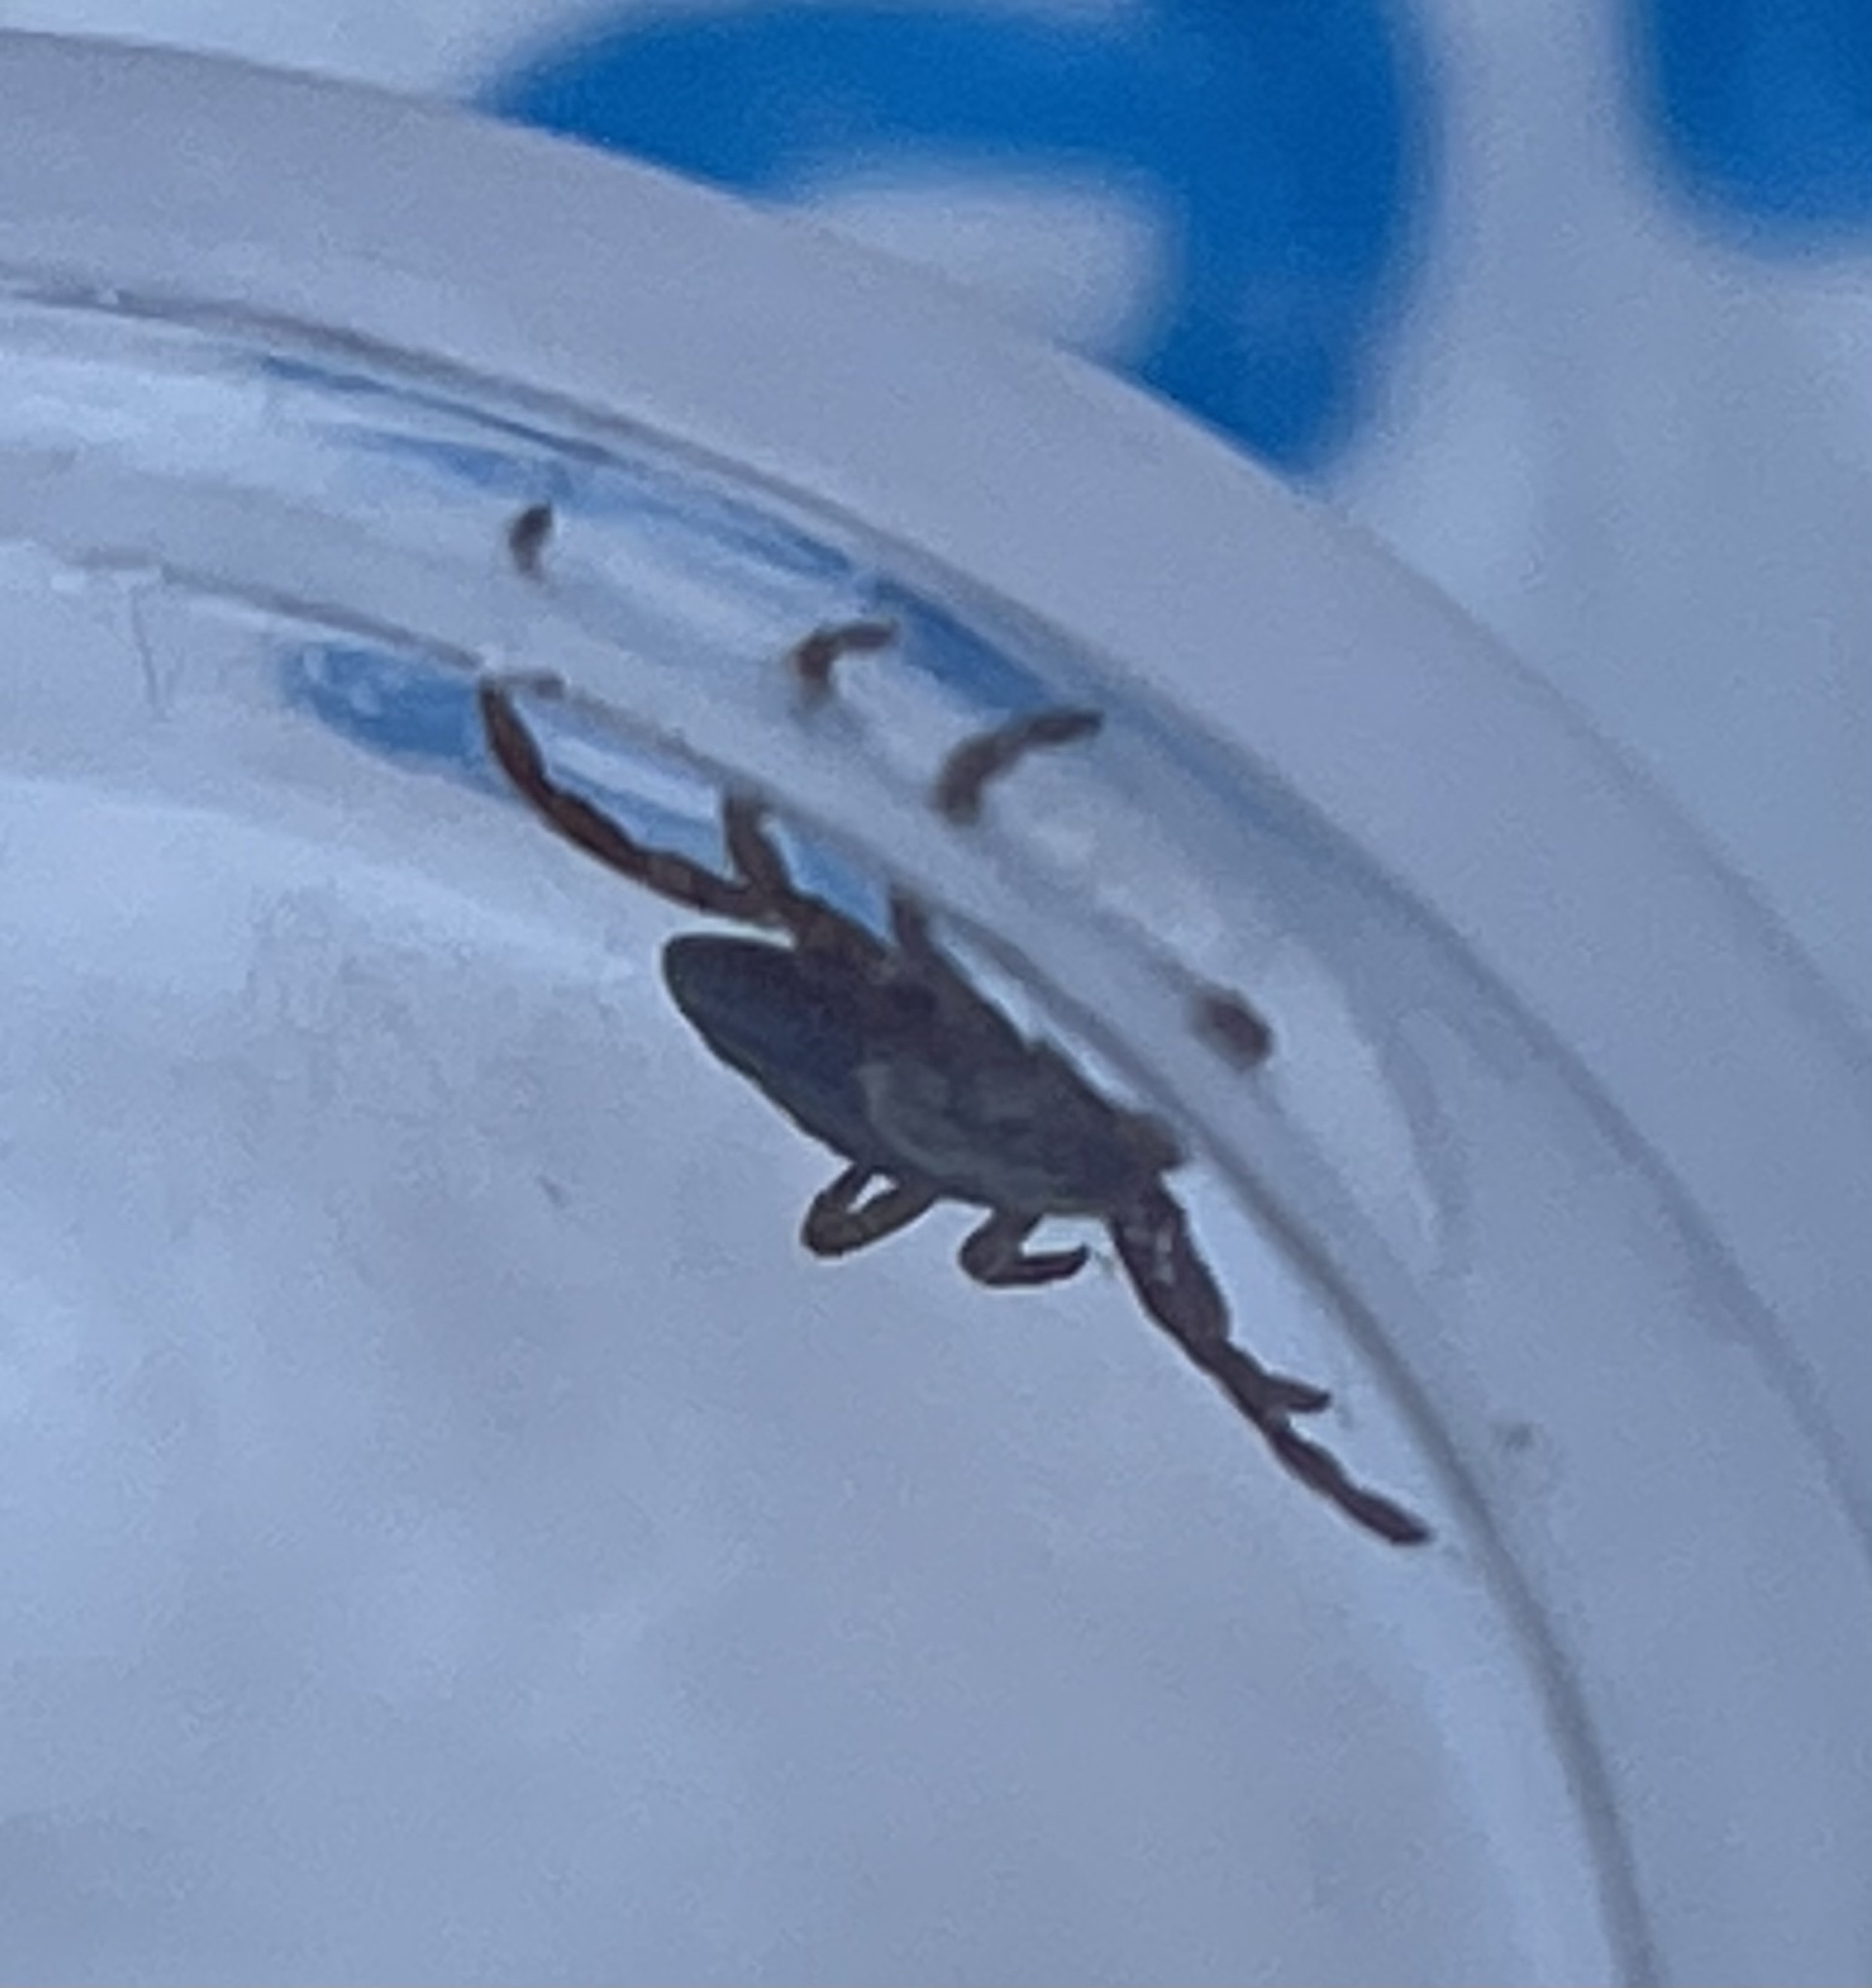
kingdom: Animalia
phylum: Arthropoda
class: Arachnida
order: Ixodida
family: Ixodidae
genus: Dermacentor
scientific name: Dermacentor occidentalis
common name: Net tick
